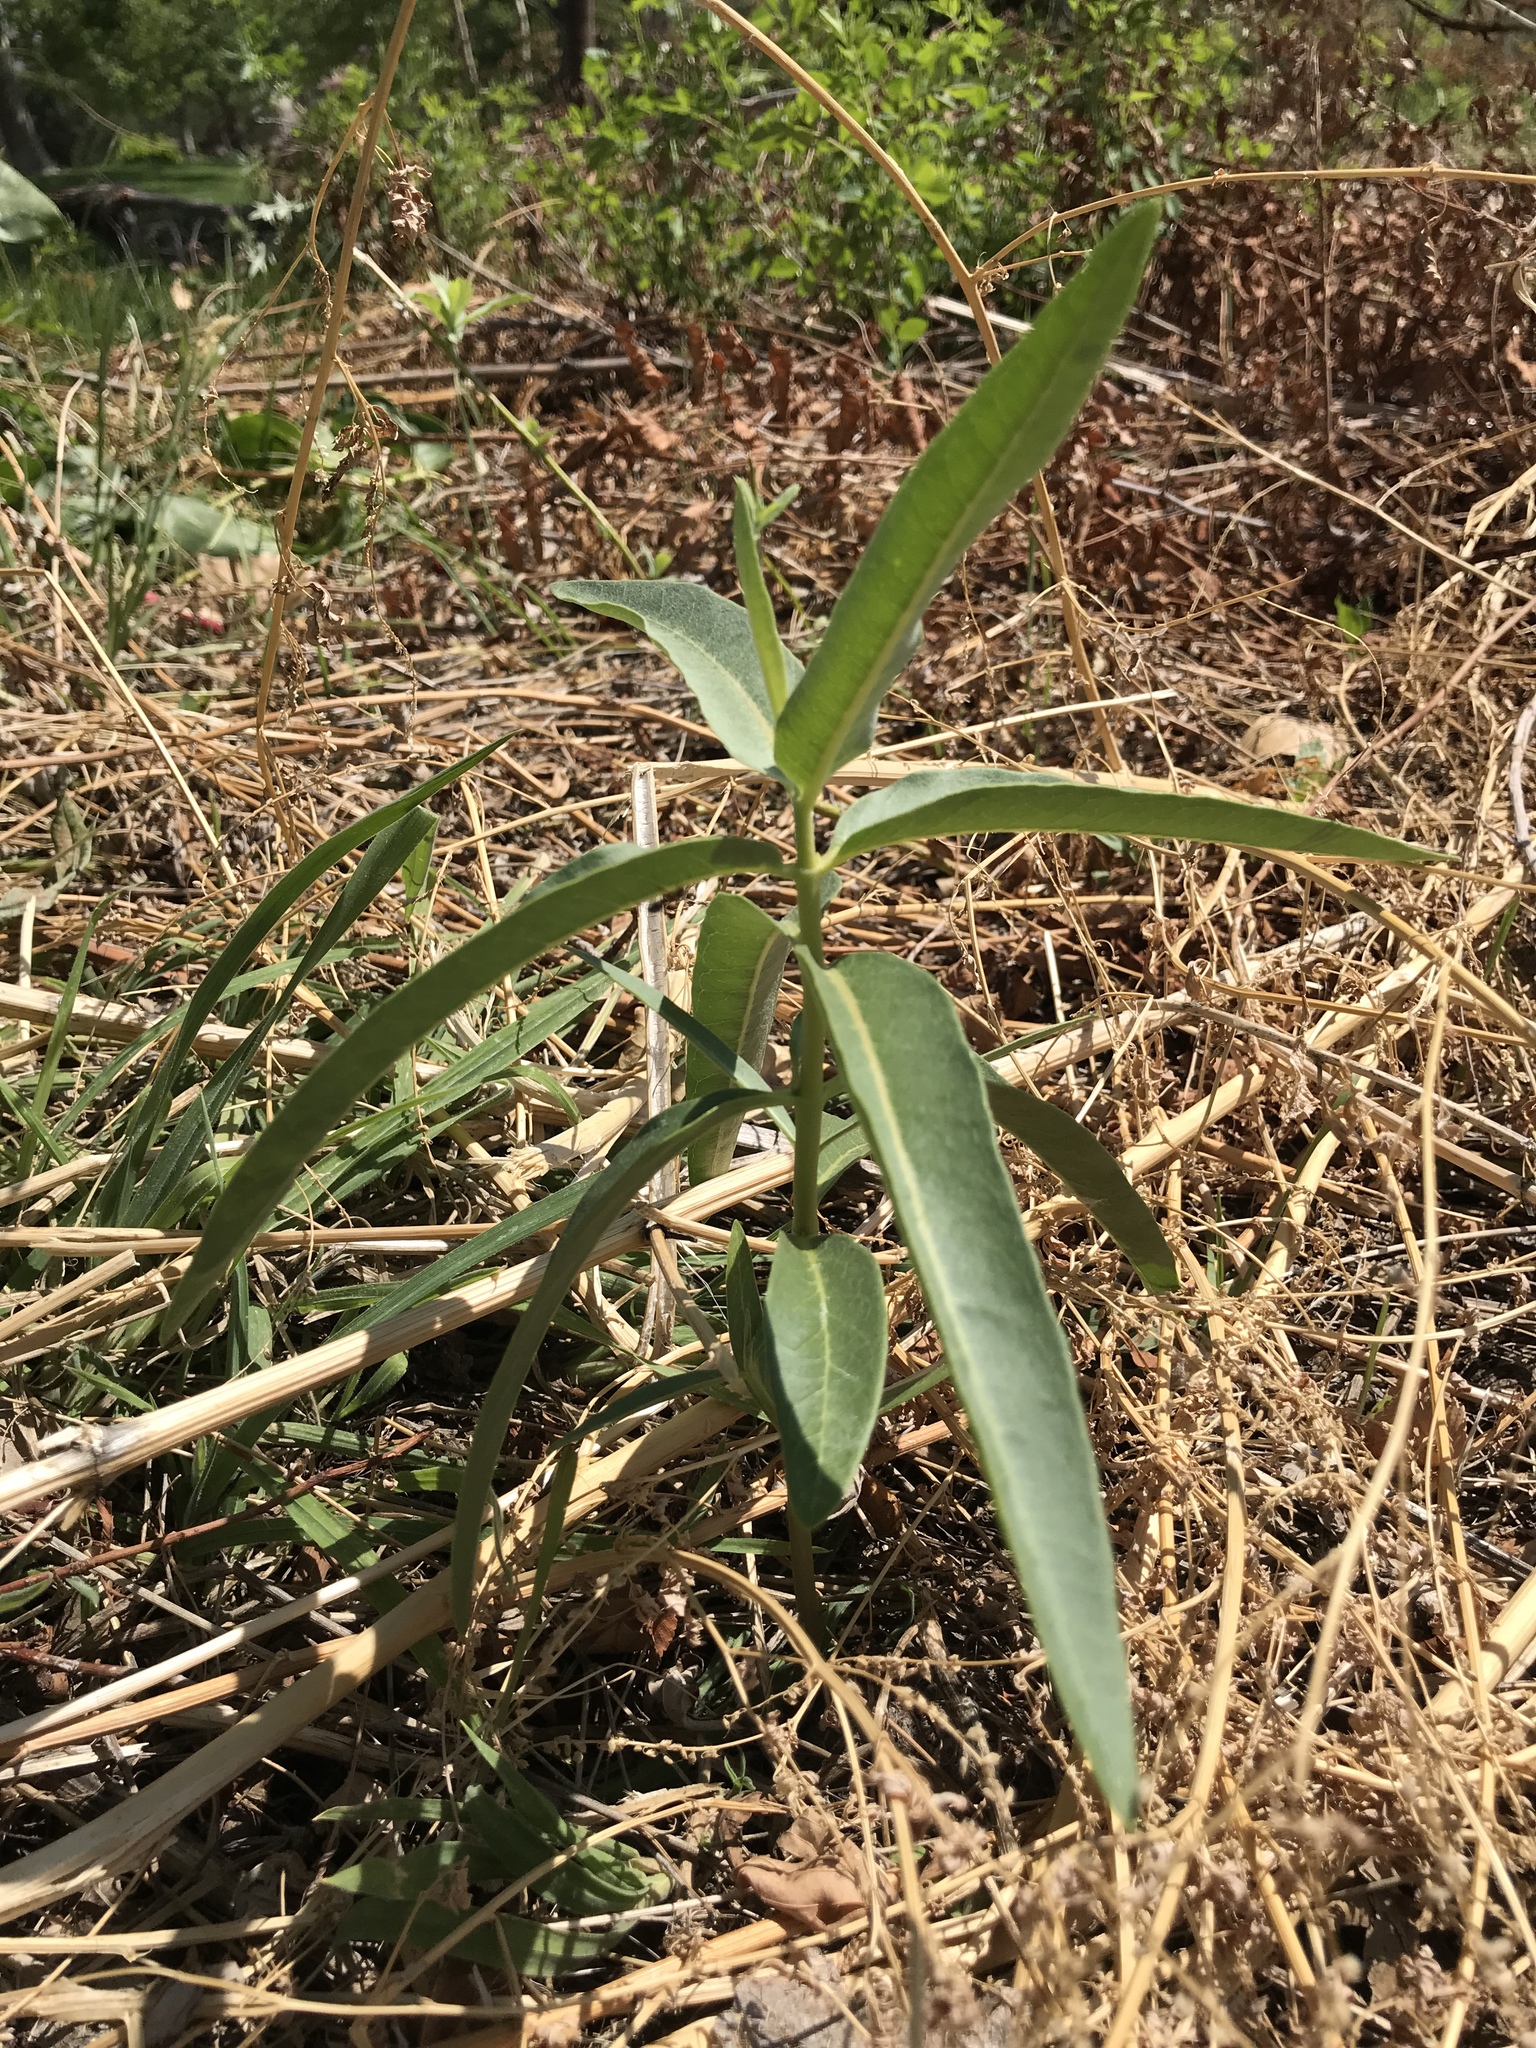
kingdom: Plantae
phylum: Tracheophyta
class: Magnoliopsida
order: Gentianales
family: Apocynaceae
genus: Asclepias
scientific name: Asclepias speciosa
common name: Showy milkweed
